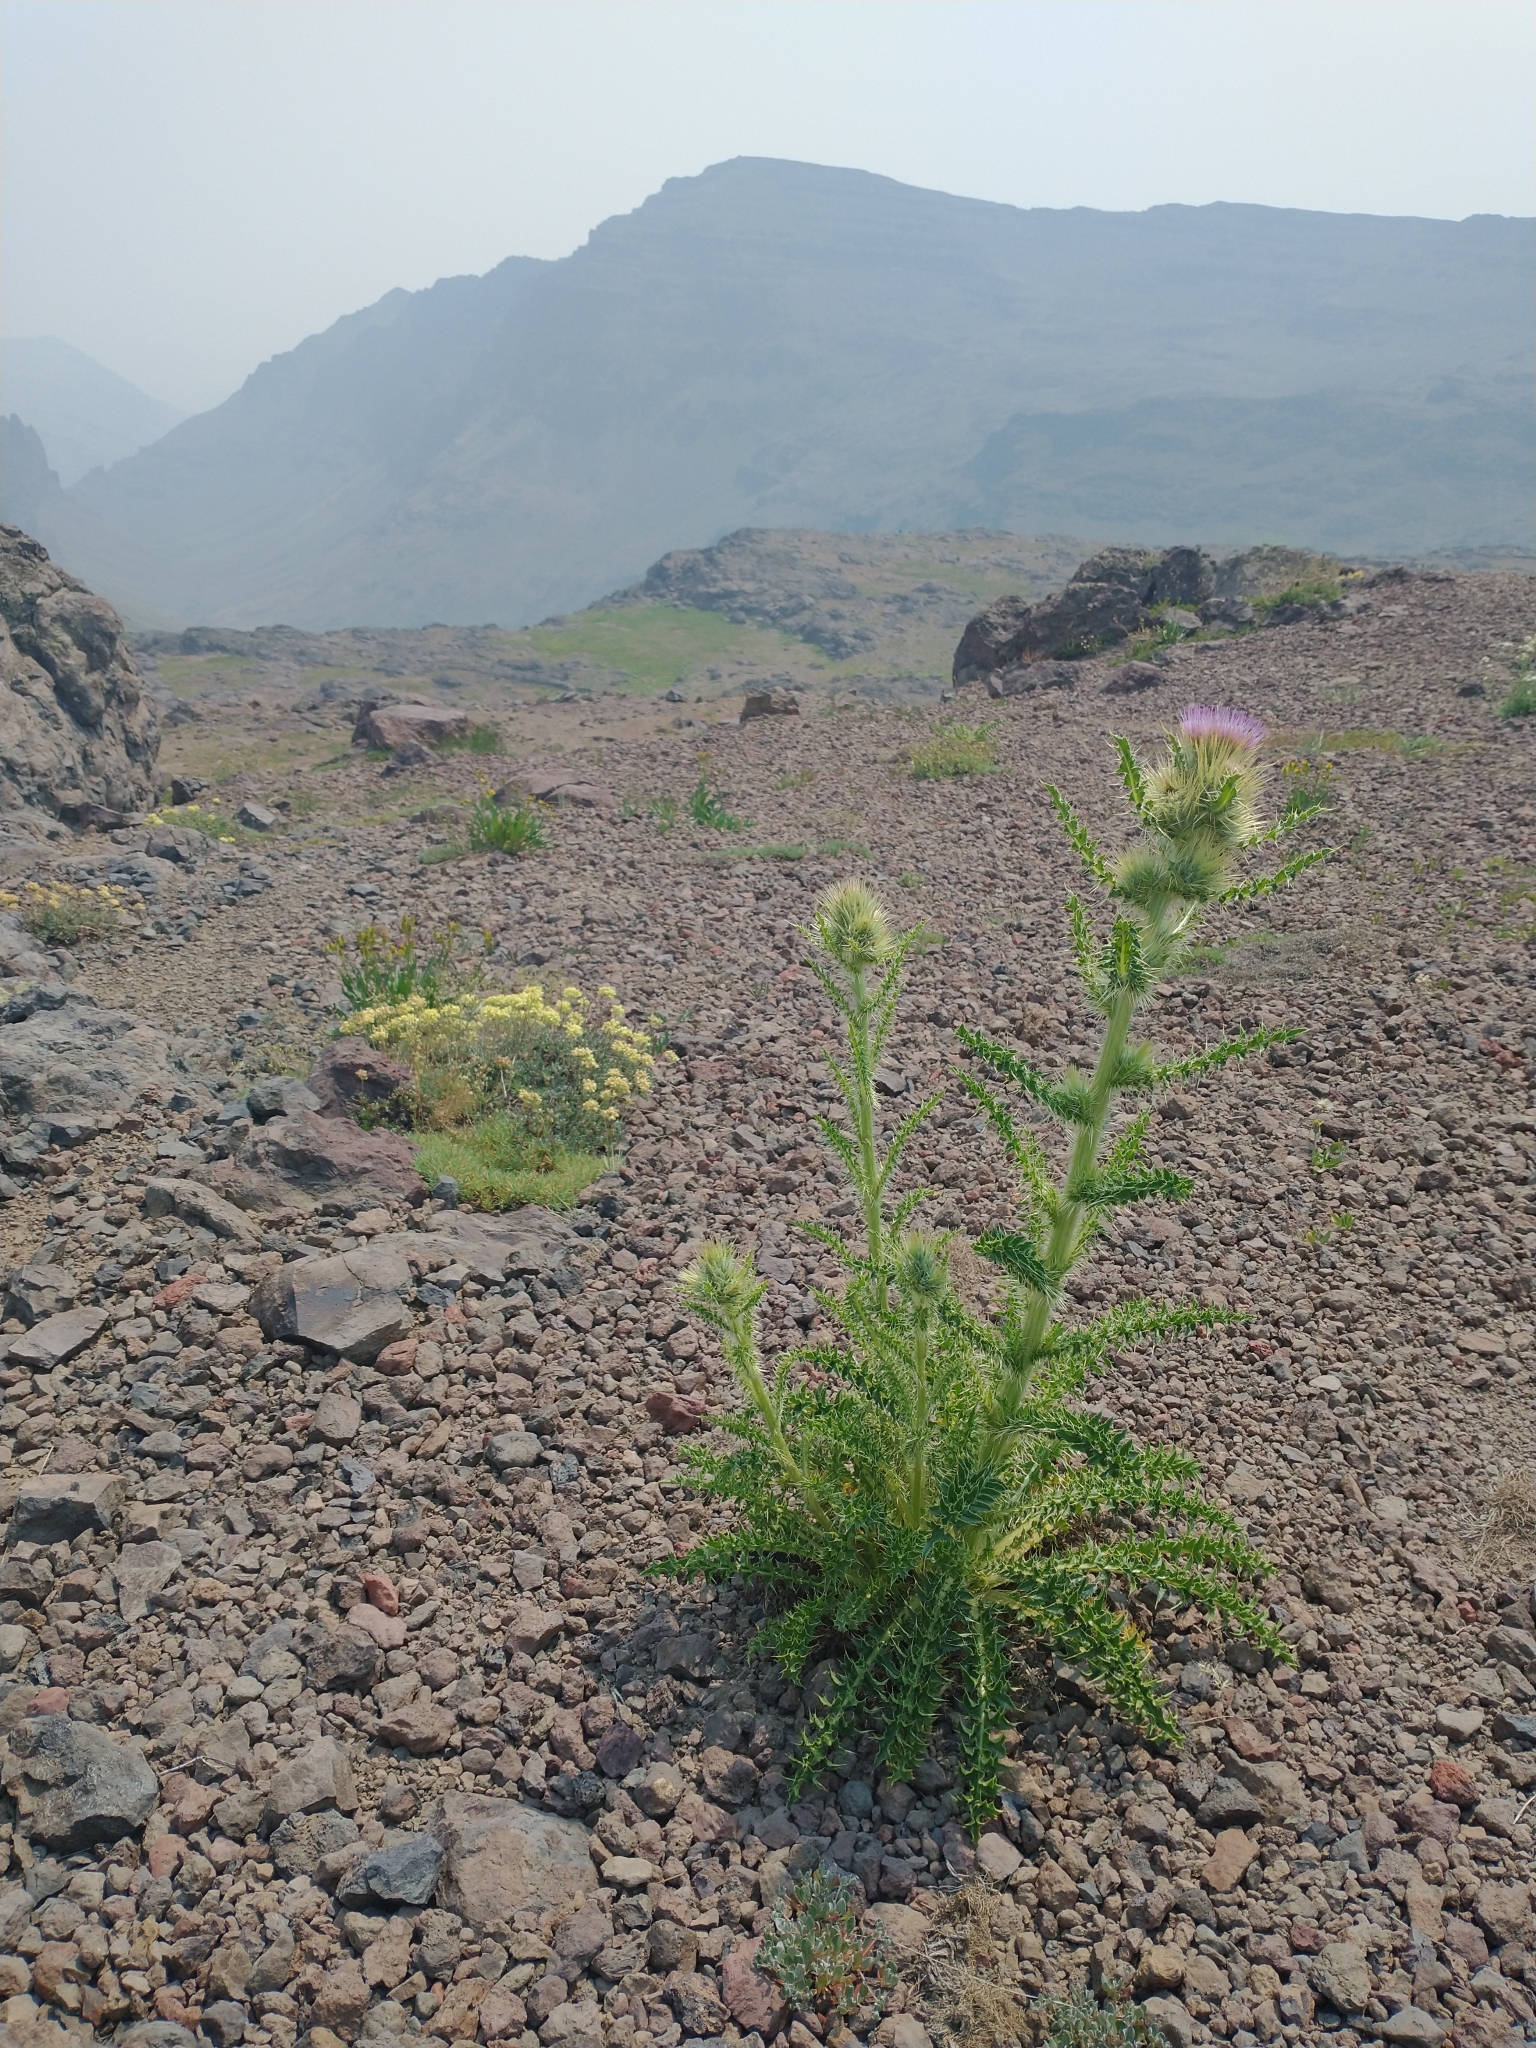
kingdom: Plantae
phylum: Tracheophyta
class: Magnoliopsida
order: Asterales
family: Asteraceae
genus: Cirsium
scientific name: Cirsium peckii
